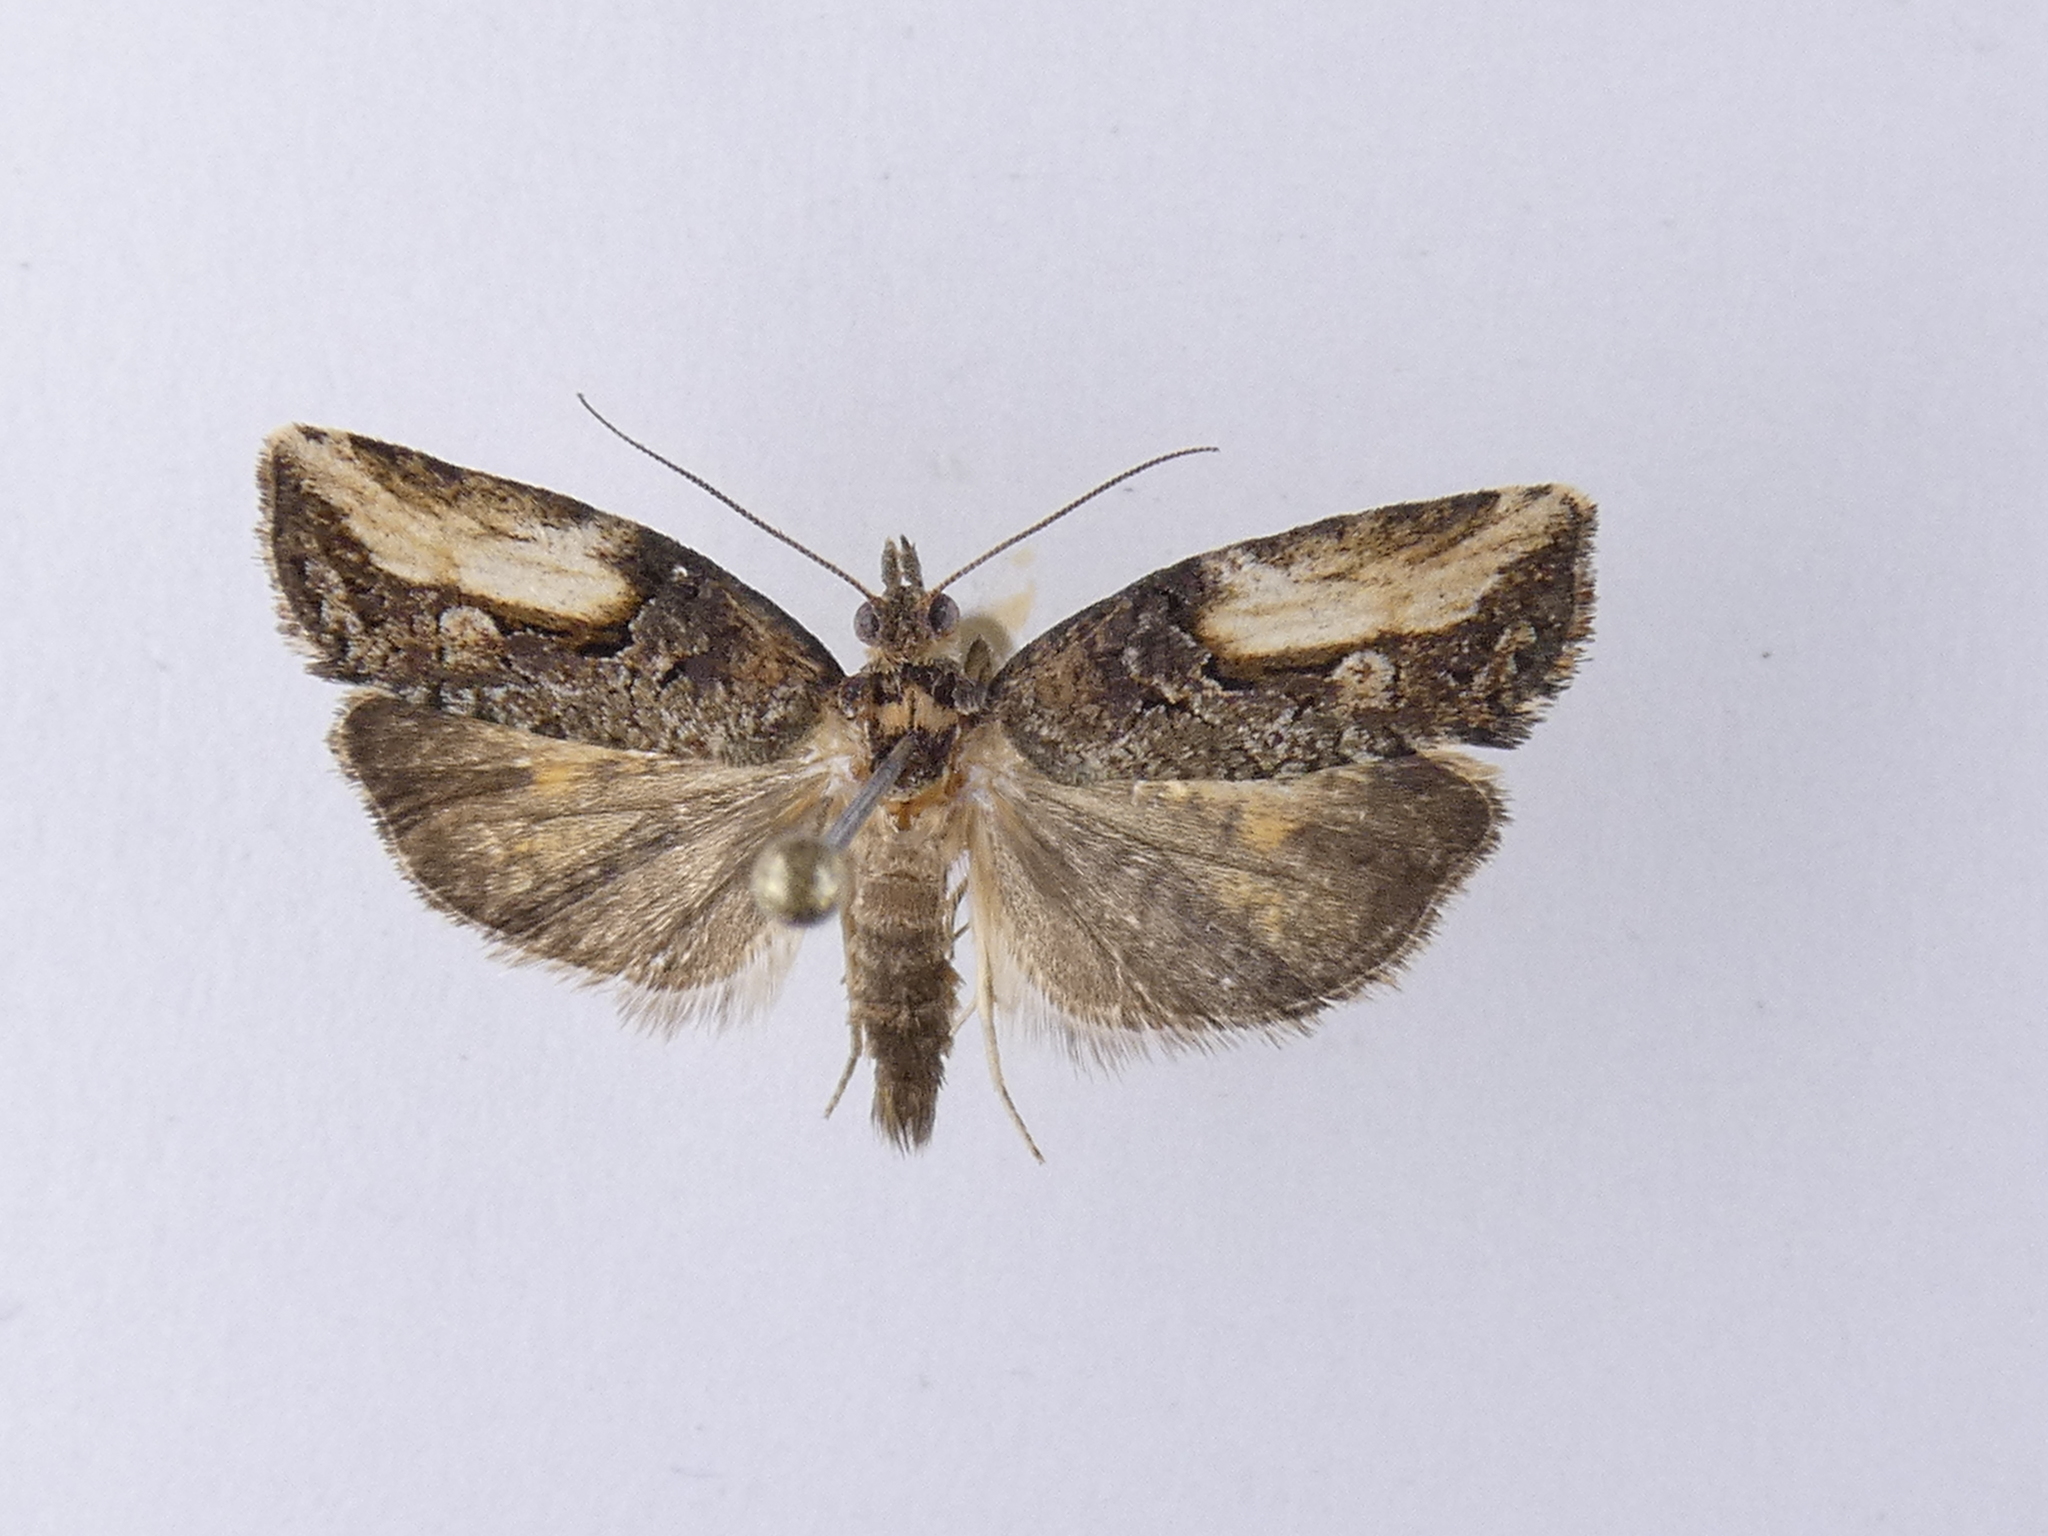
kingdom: Animalia
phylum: Arthropoda
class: Insecta
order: Lepidoptera
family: Tortricidae
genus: Harmologa
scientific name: Harmologa scoliastis
